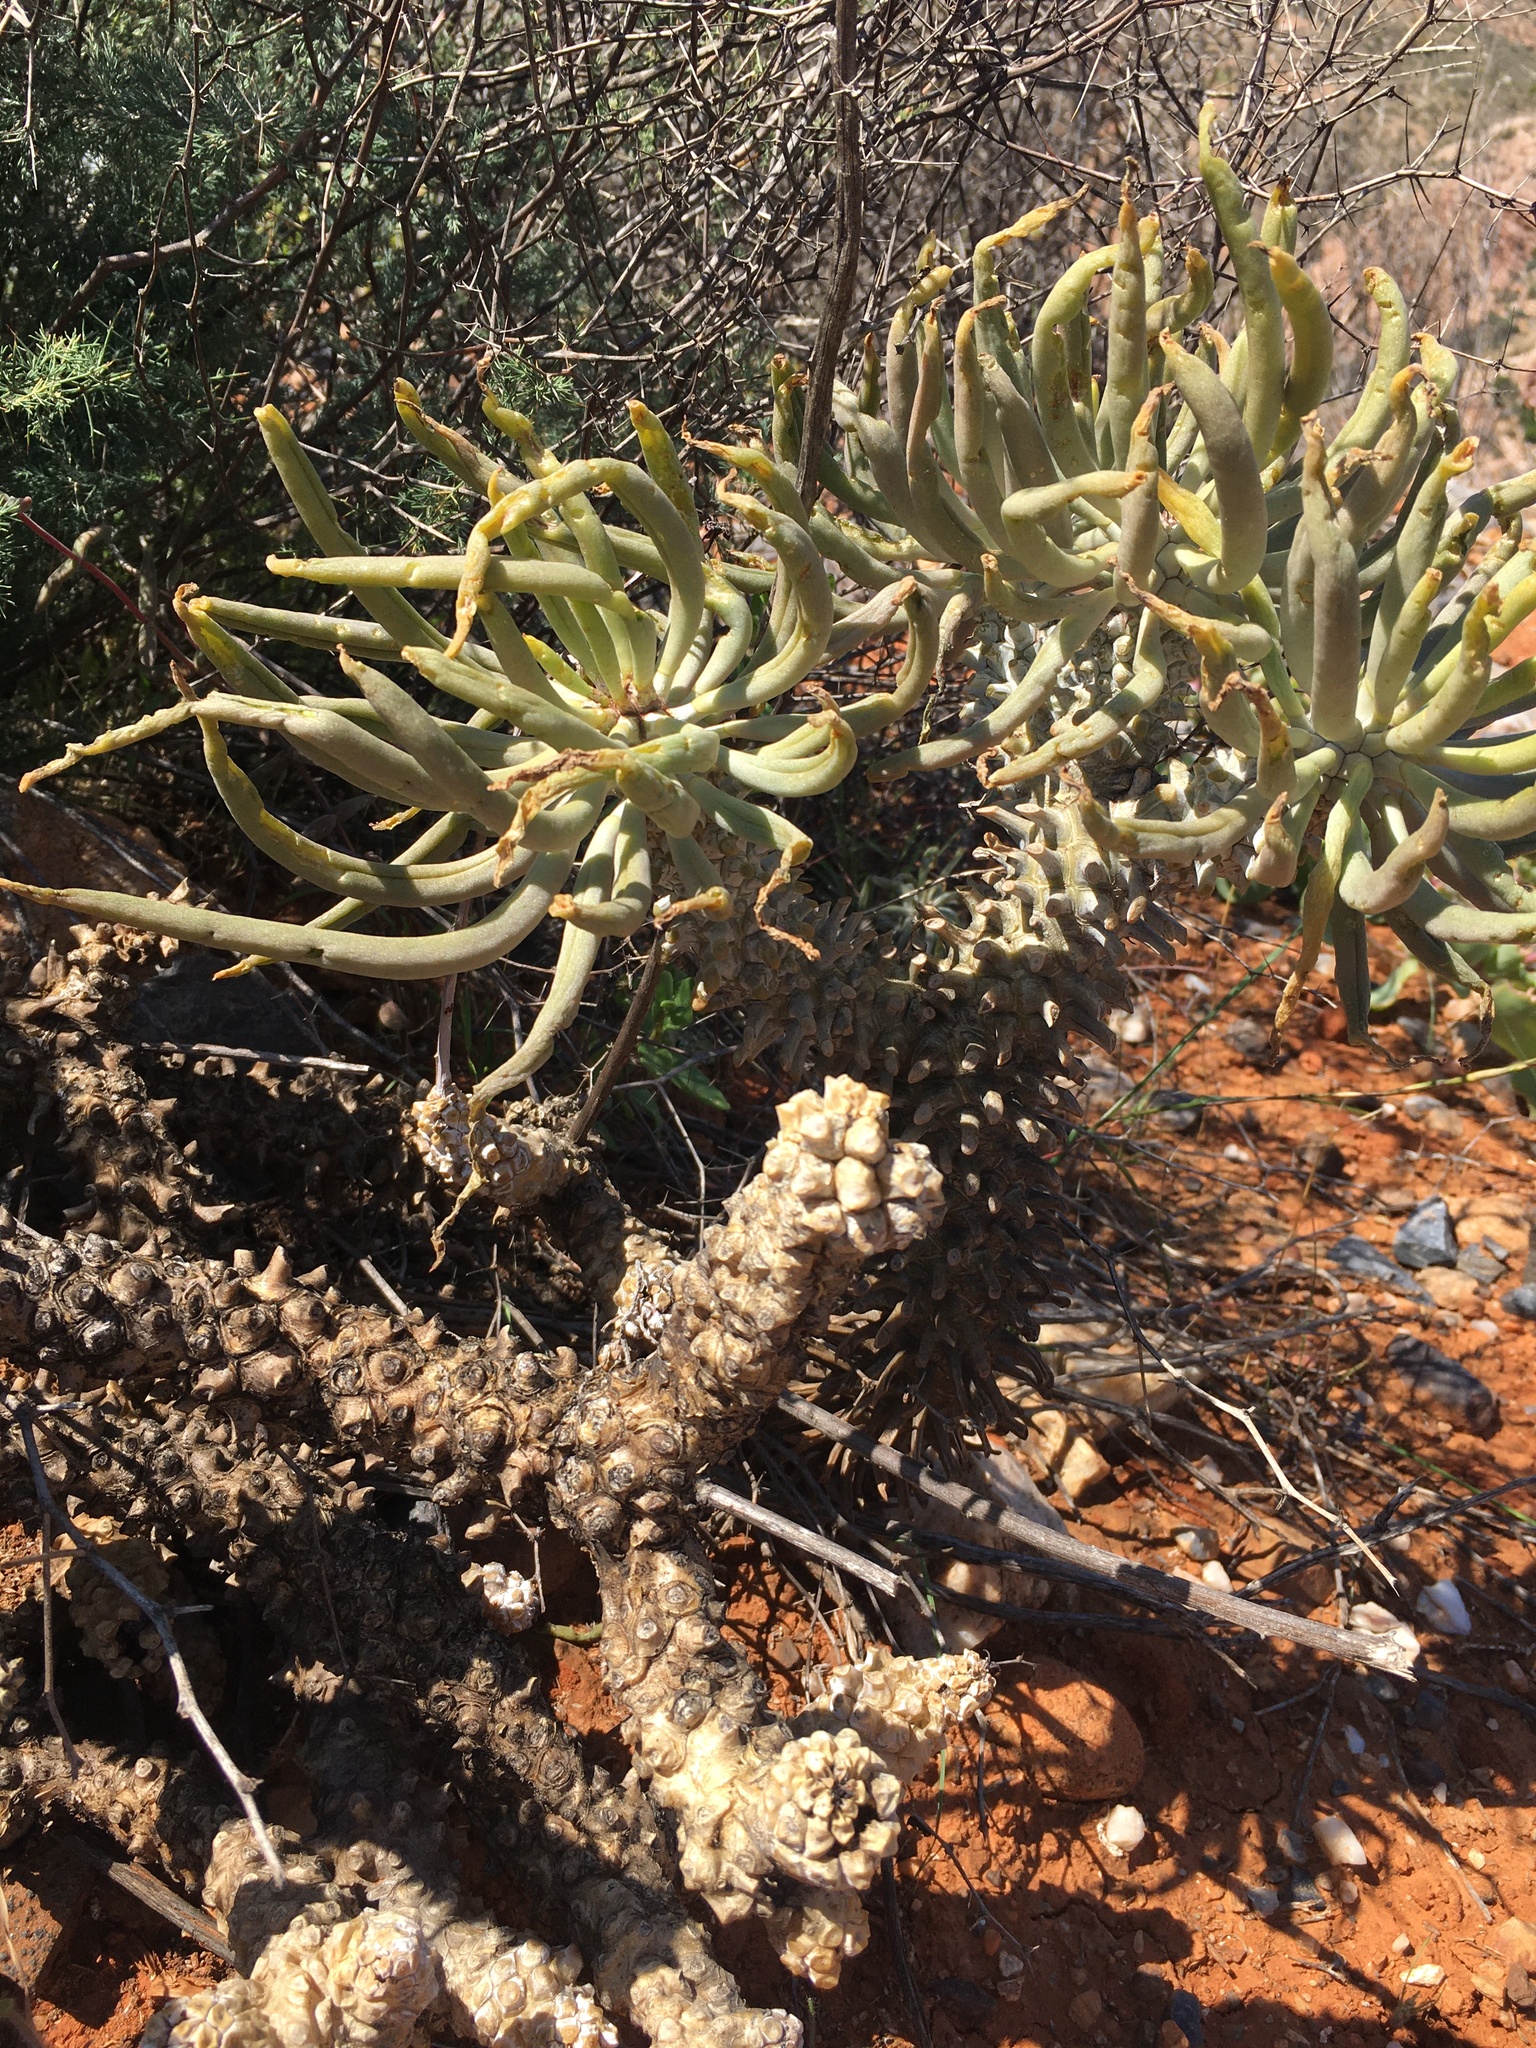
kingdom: Plantae
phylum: Tracheophyta
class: Magnoliopsida
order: Saxifragales
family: Crassulaceae
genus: Tylecodon
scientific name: Tylecodon wallichii
